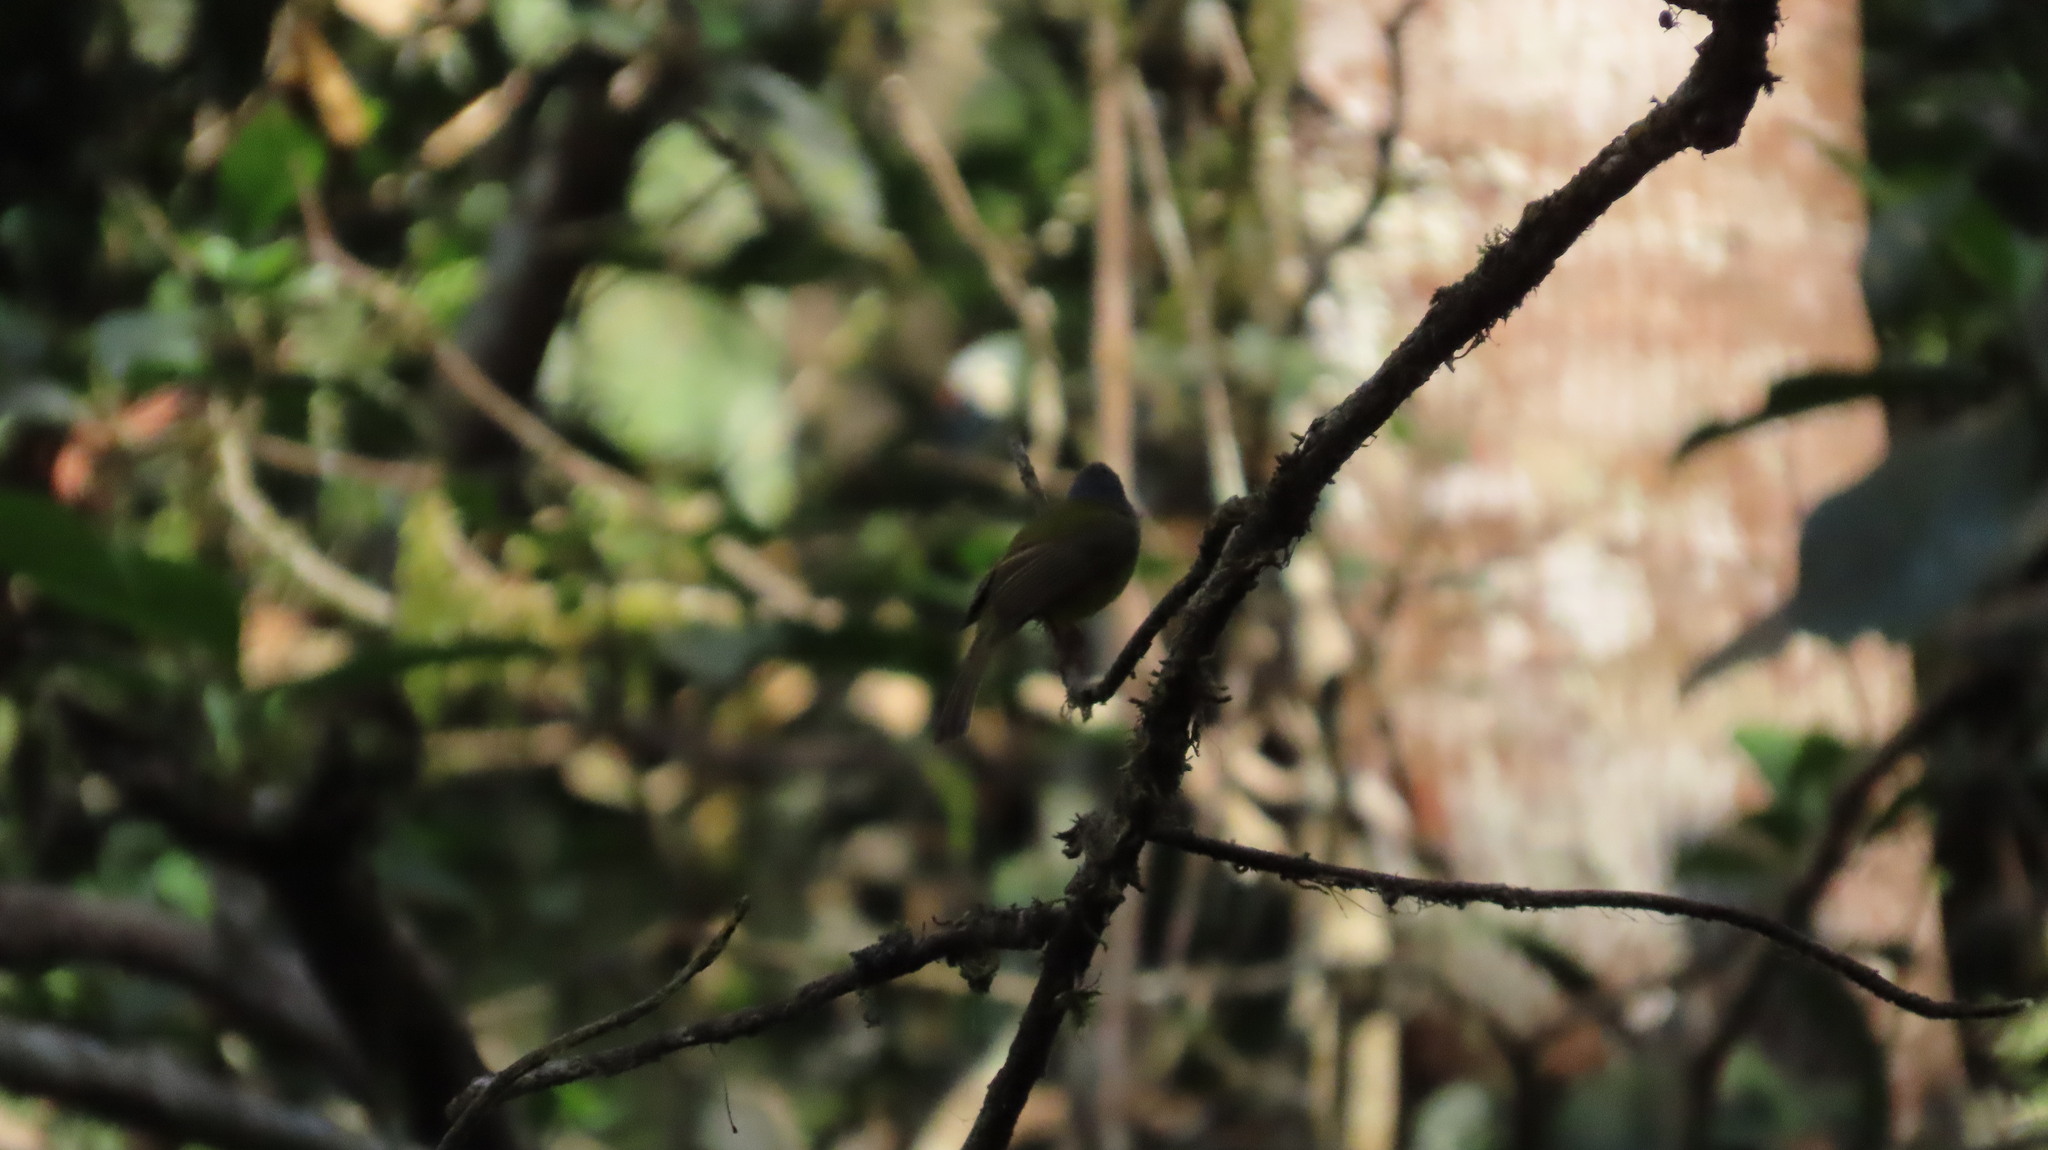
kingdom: Animalia
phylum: Chordata
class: Aves
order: Passeriformes
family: Stenostiridae
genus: Culicicapa
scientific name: Culicicapa ceylonensis
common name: Grey-headed canary-flycatcher
